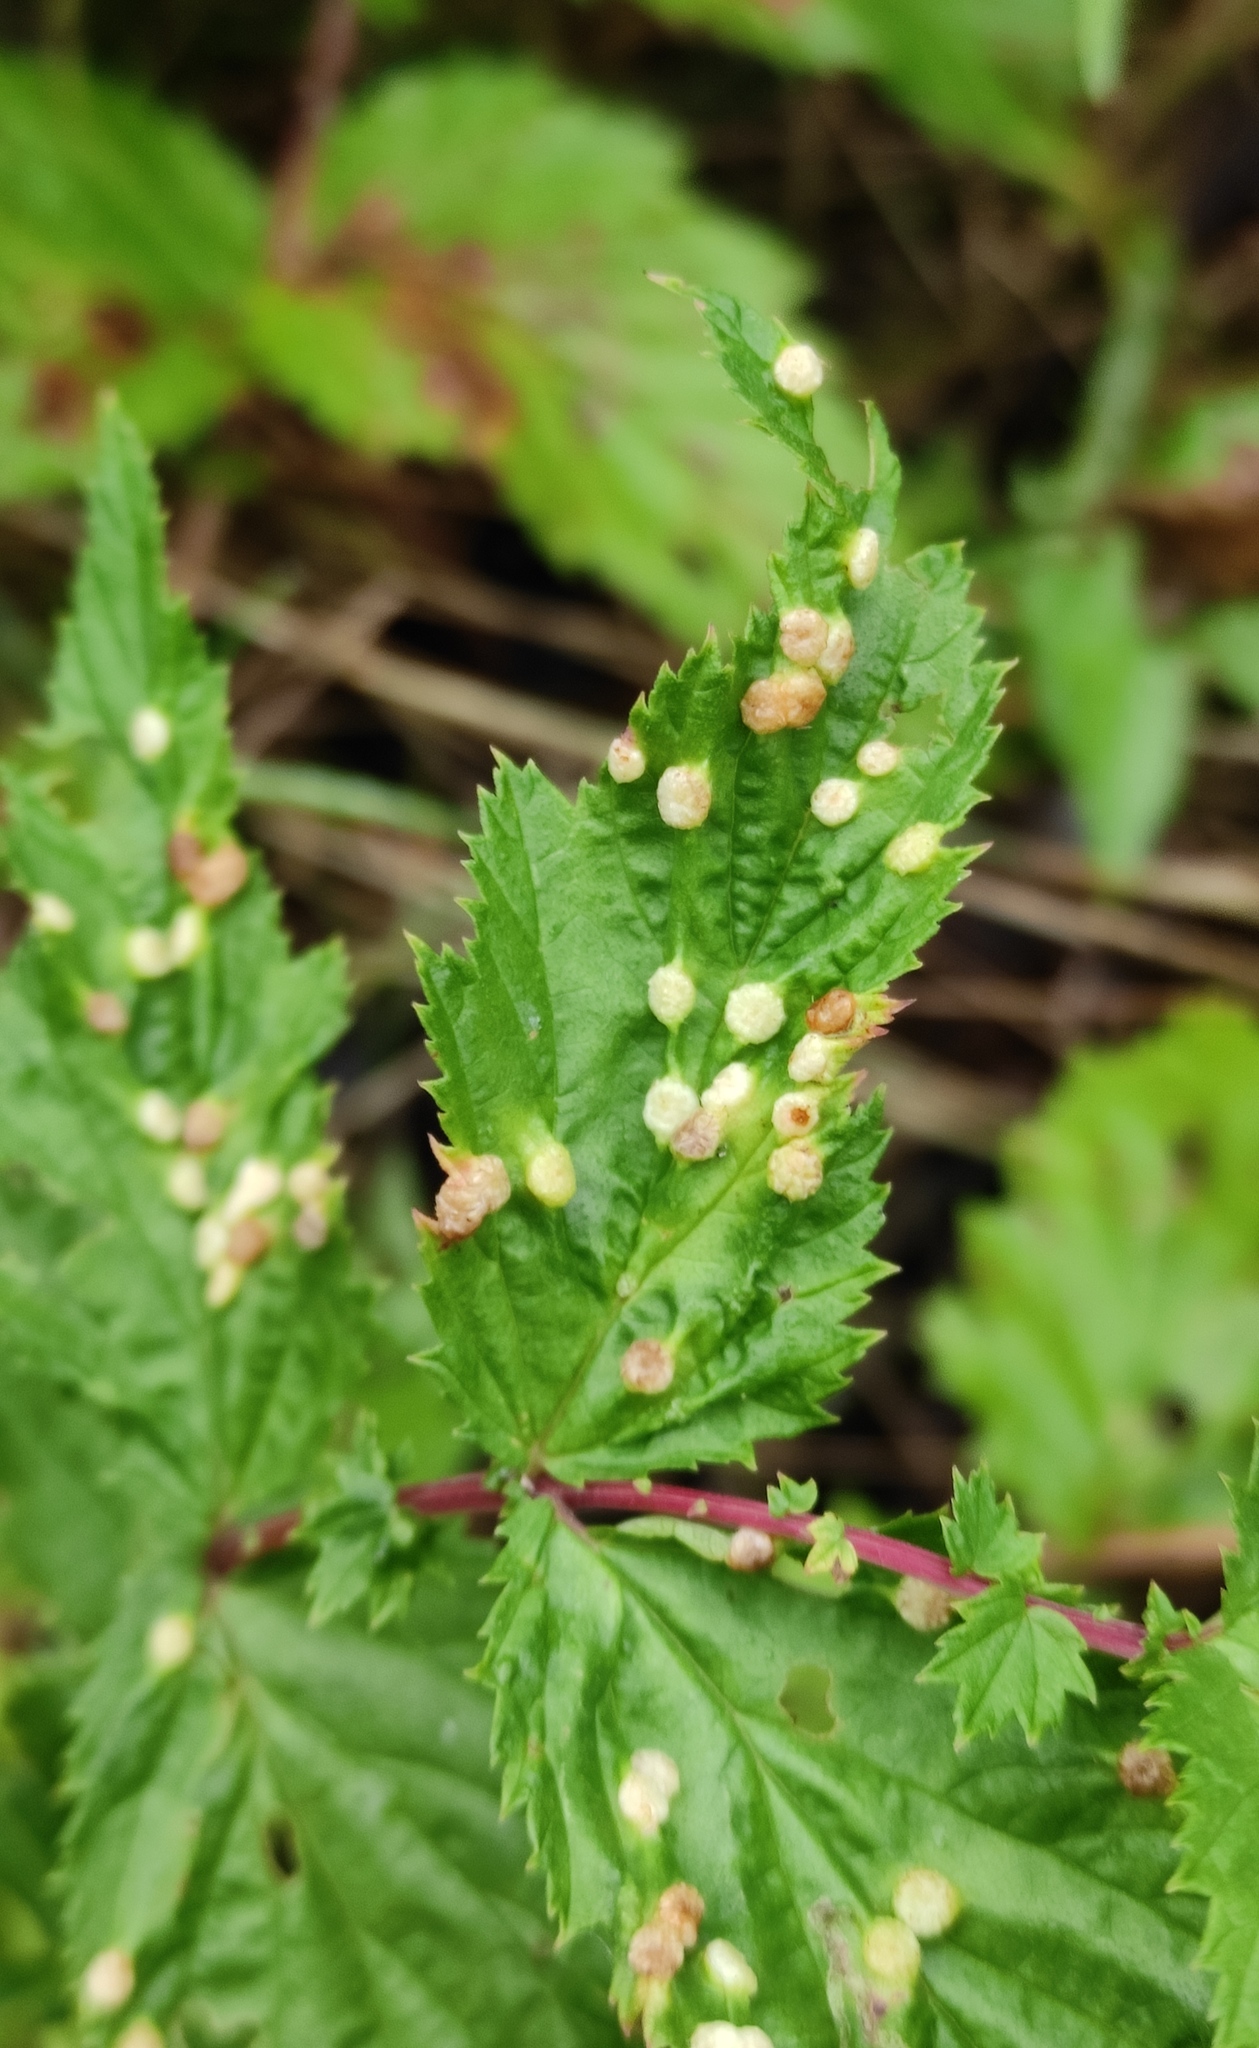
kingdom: Animalia
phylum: Arthropoda
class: Insecta
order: Diptera
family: Cecidomyiidae
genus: Dasineura
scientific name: Dasineura ulmaria
